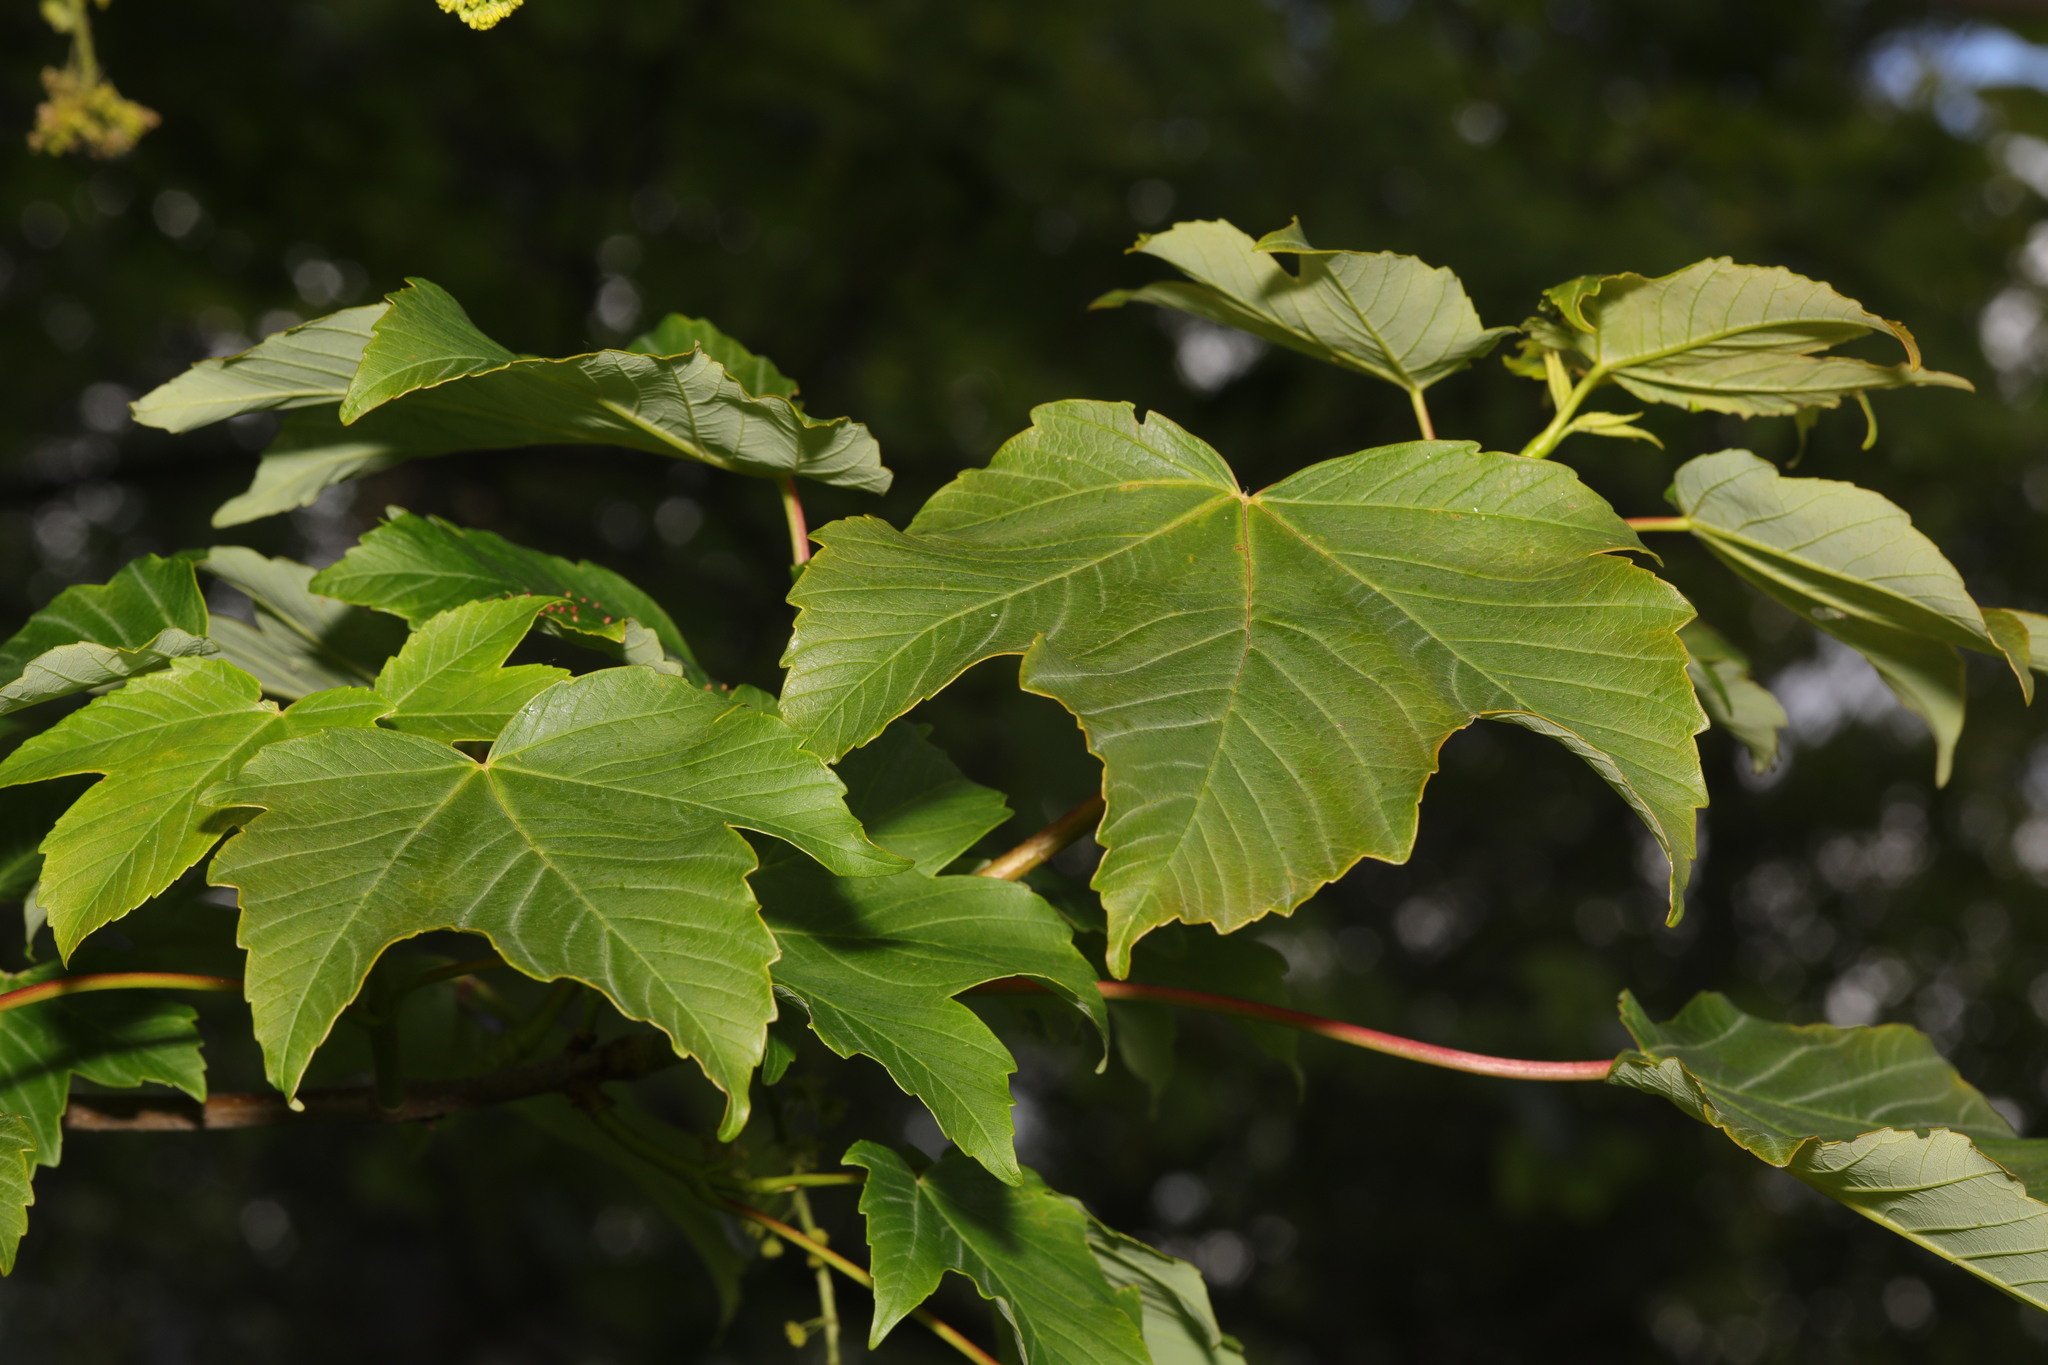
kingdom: Plantae
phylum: Tracheophyta
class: Magnoliopsida
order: Sapindales
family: Sapindaceae
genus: Acer
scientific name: Acer pseudoplatanus
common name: Sycamore
